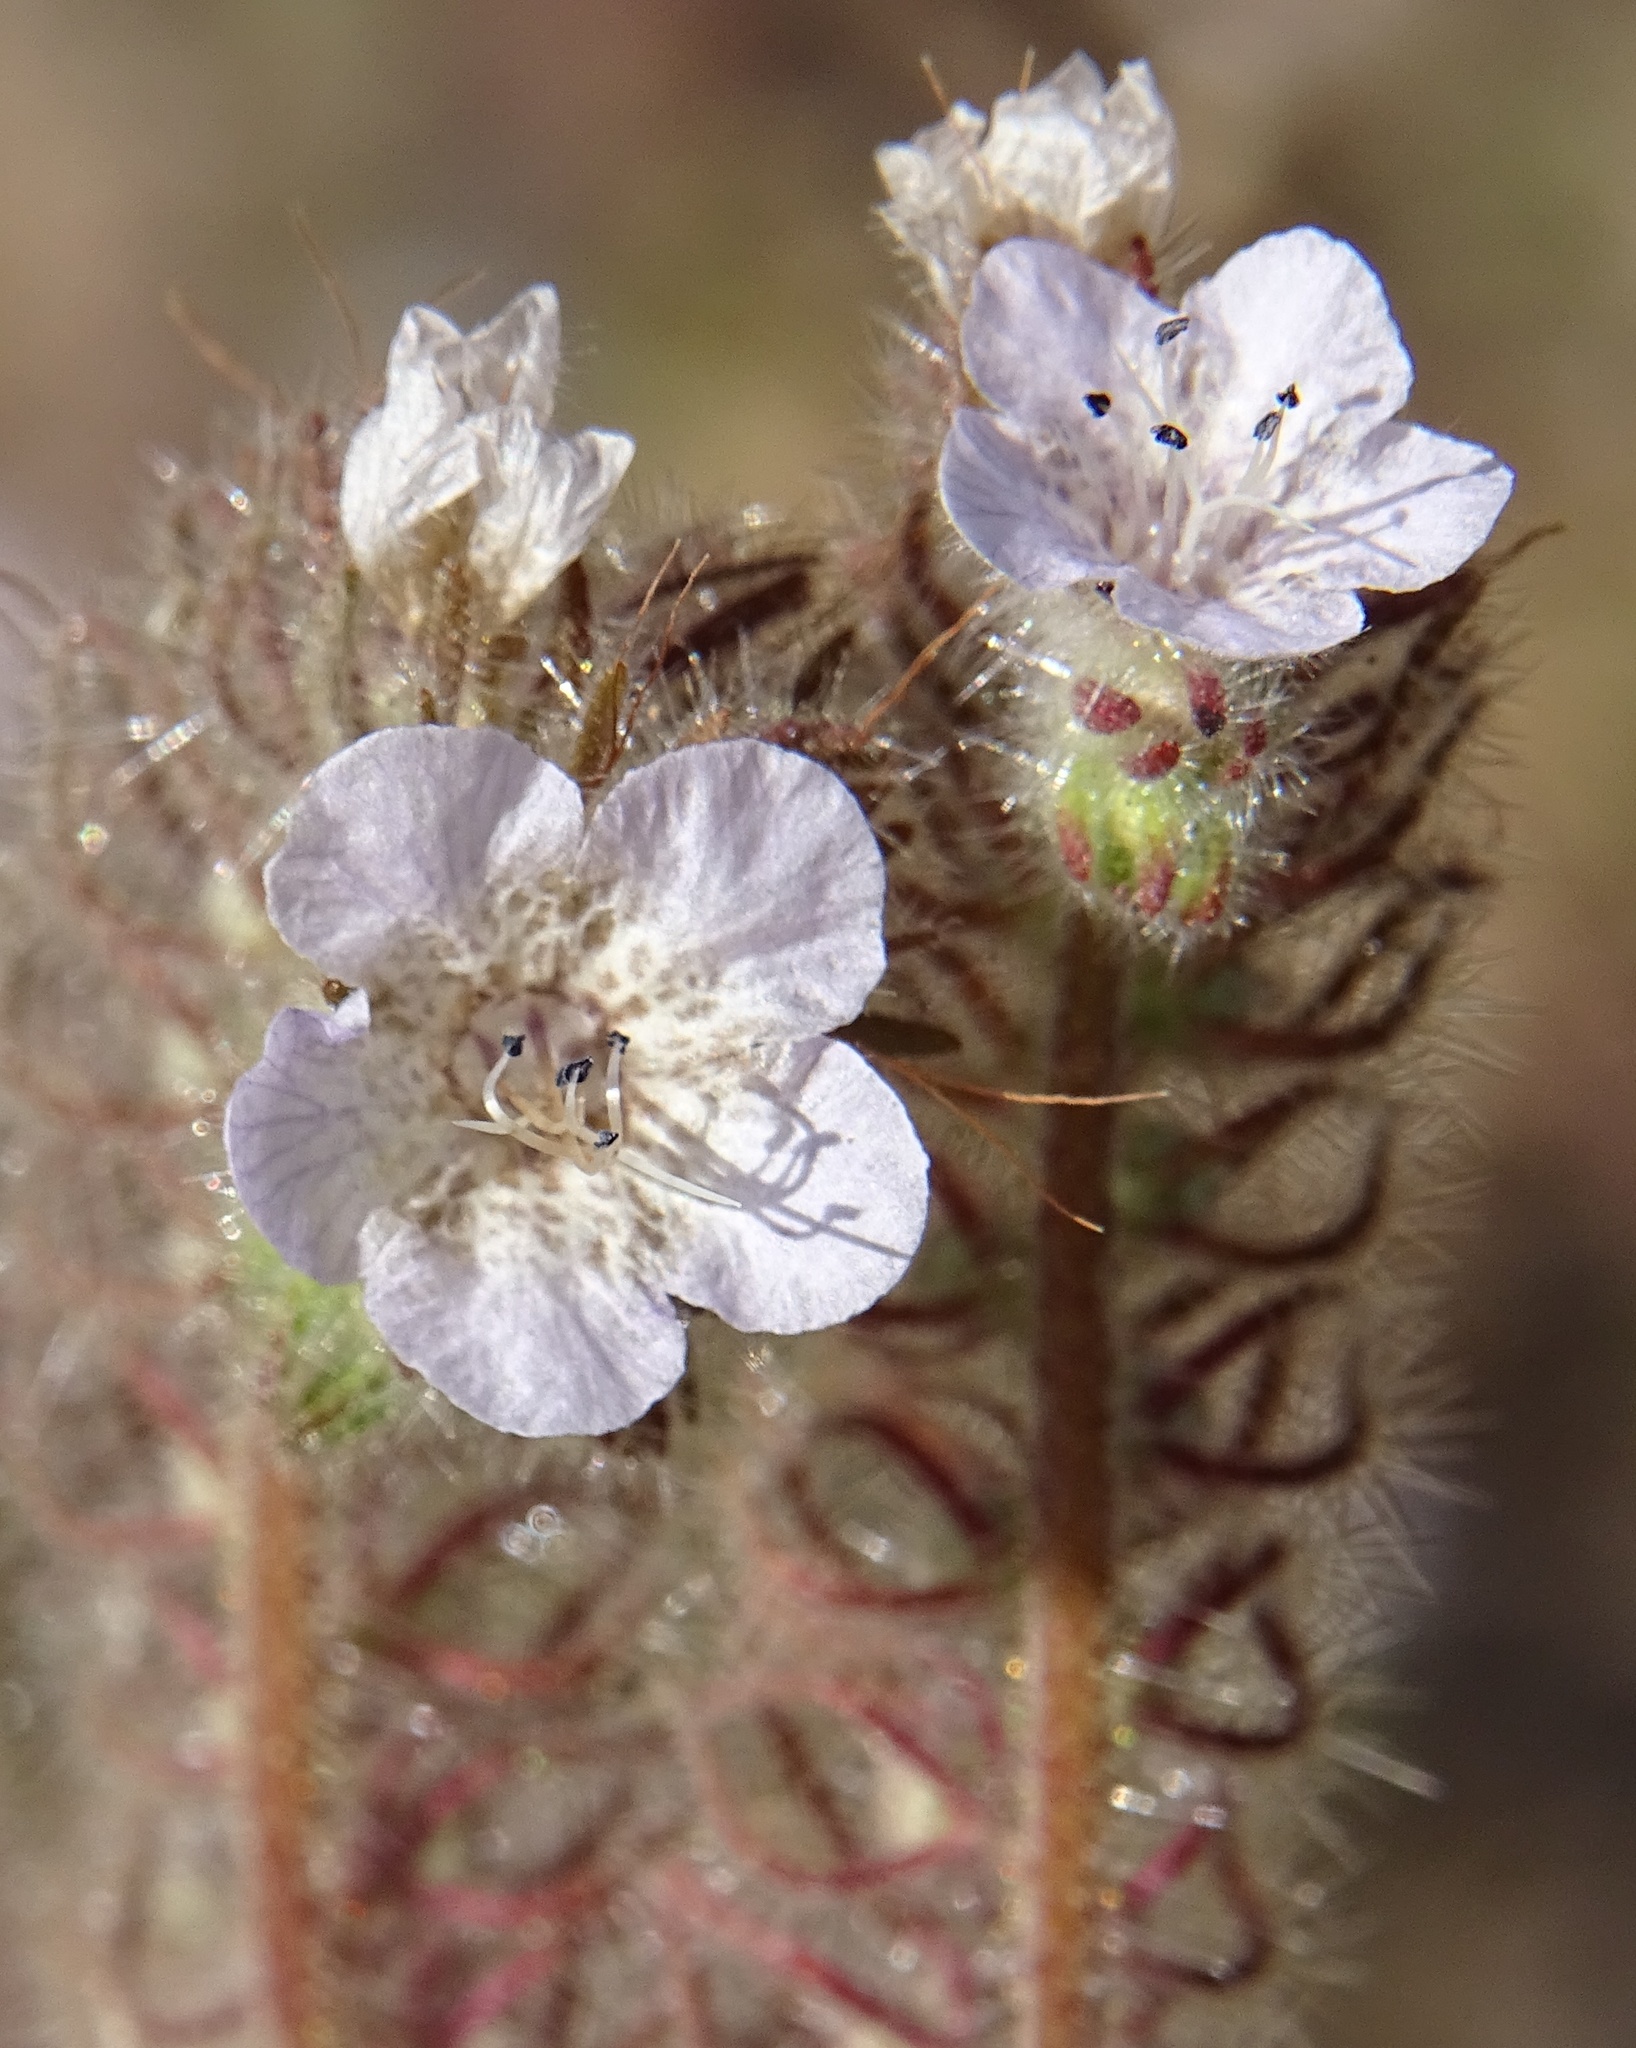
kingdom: Plantae
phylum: Tracheophyta
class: Magnoliopsida
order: Boraginales
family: Hydrophyllaceae
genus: Phacelia
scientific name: Phacelia cicutaria
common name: Caterpillar phacelia
